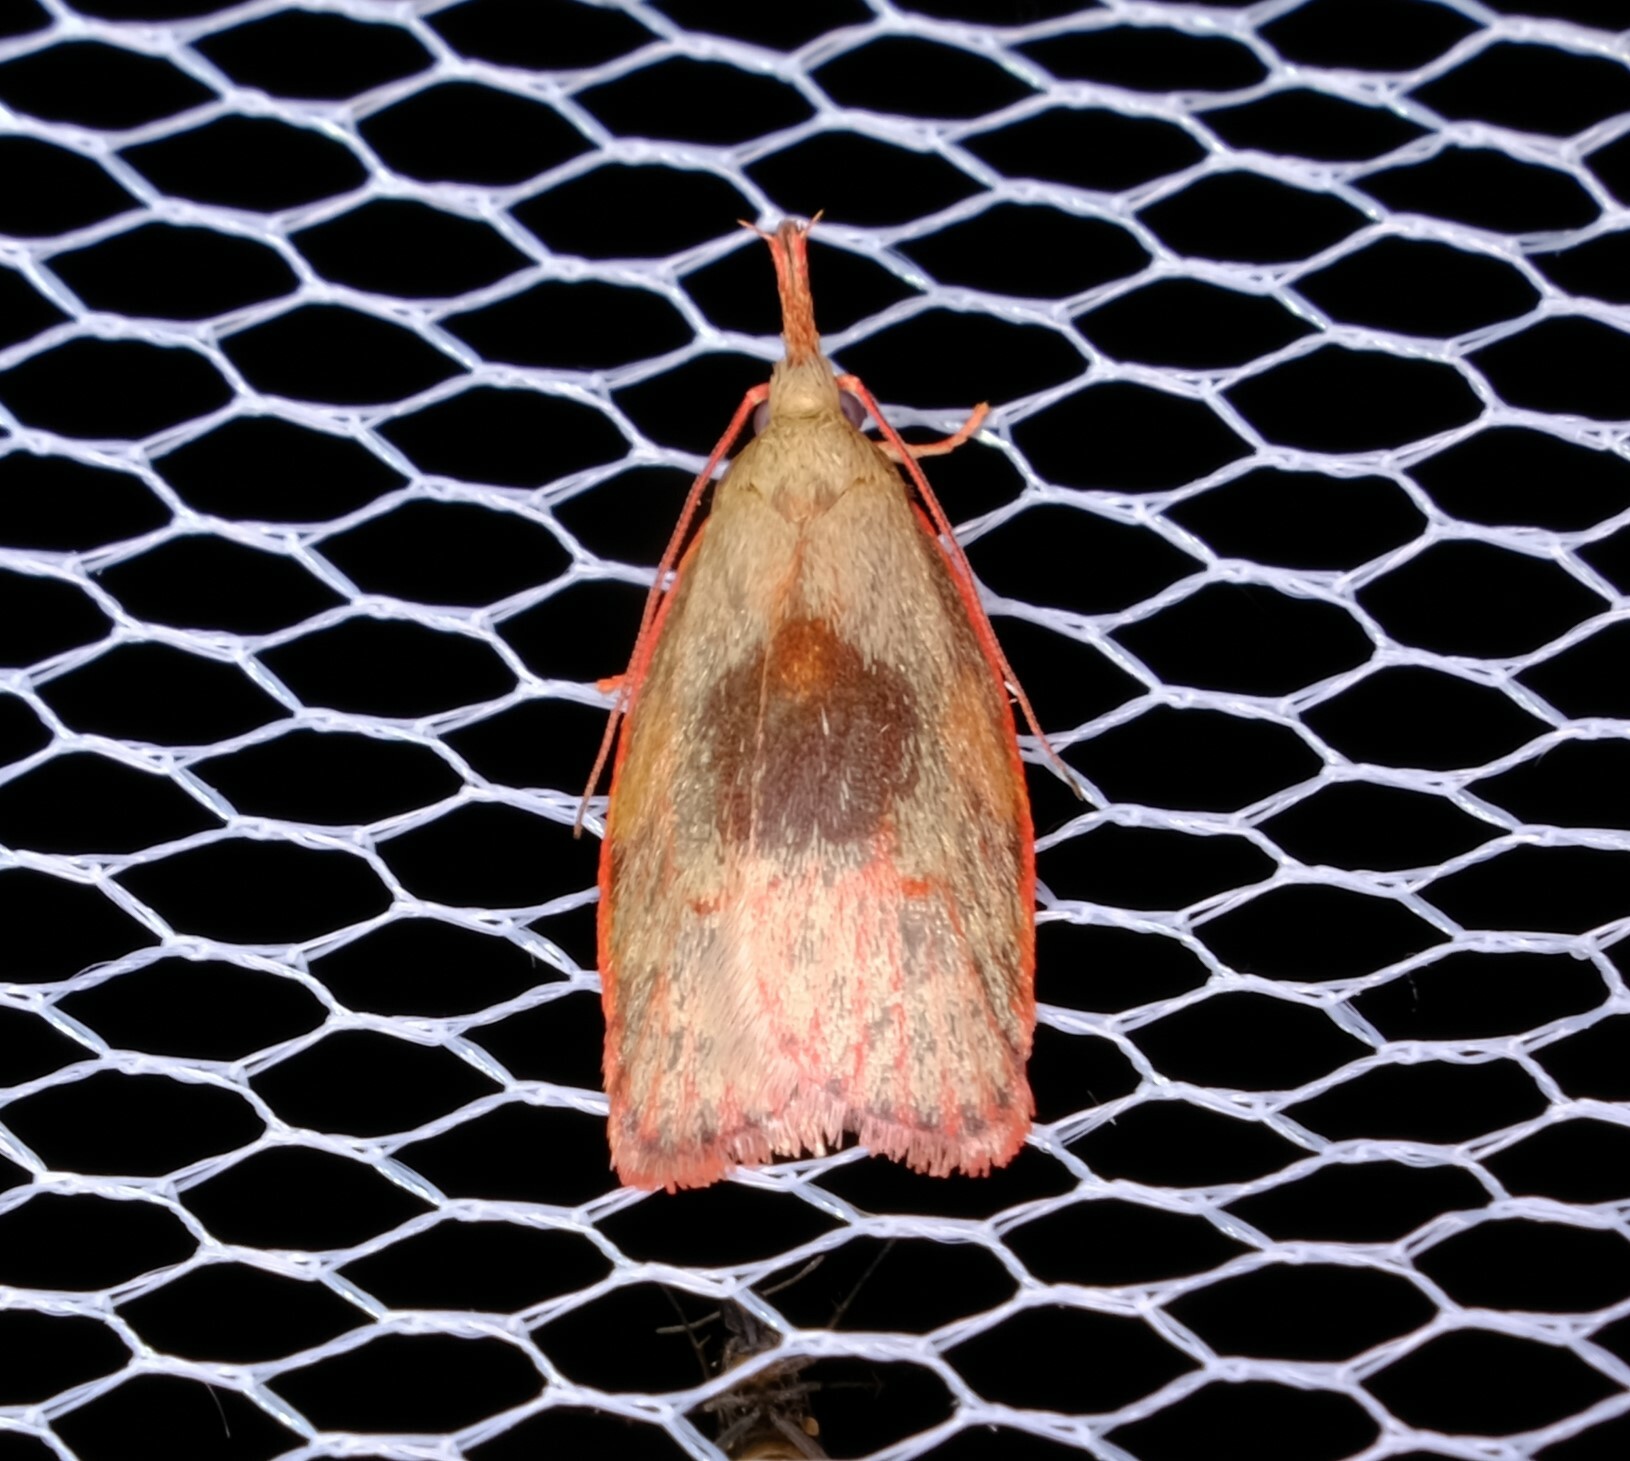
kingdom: Animalia
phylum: Arthropoda
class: Insecta
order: Lepidoptera
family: Depressariidae
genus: Enchocrates
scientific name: Enchocrates glaucopis
